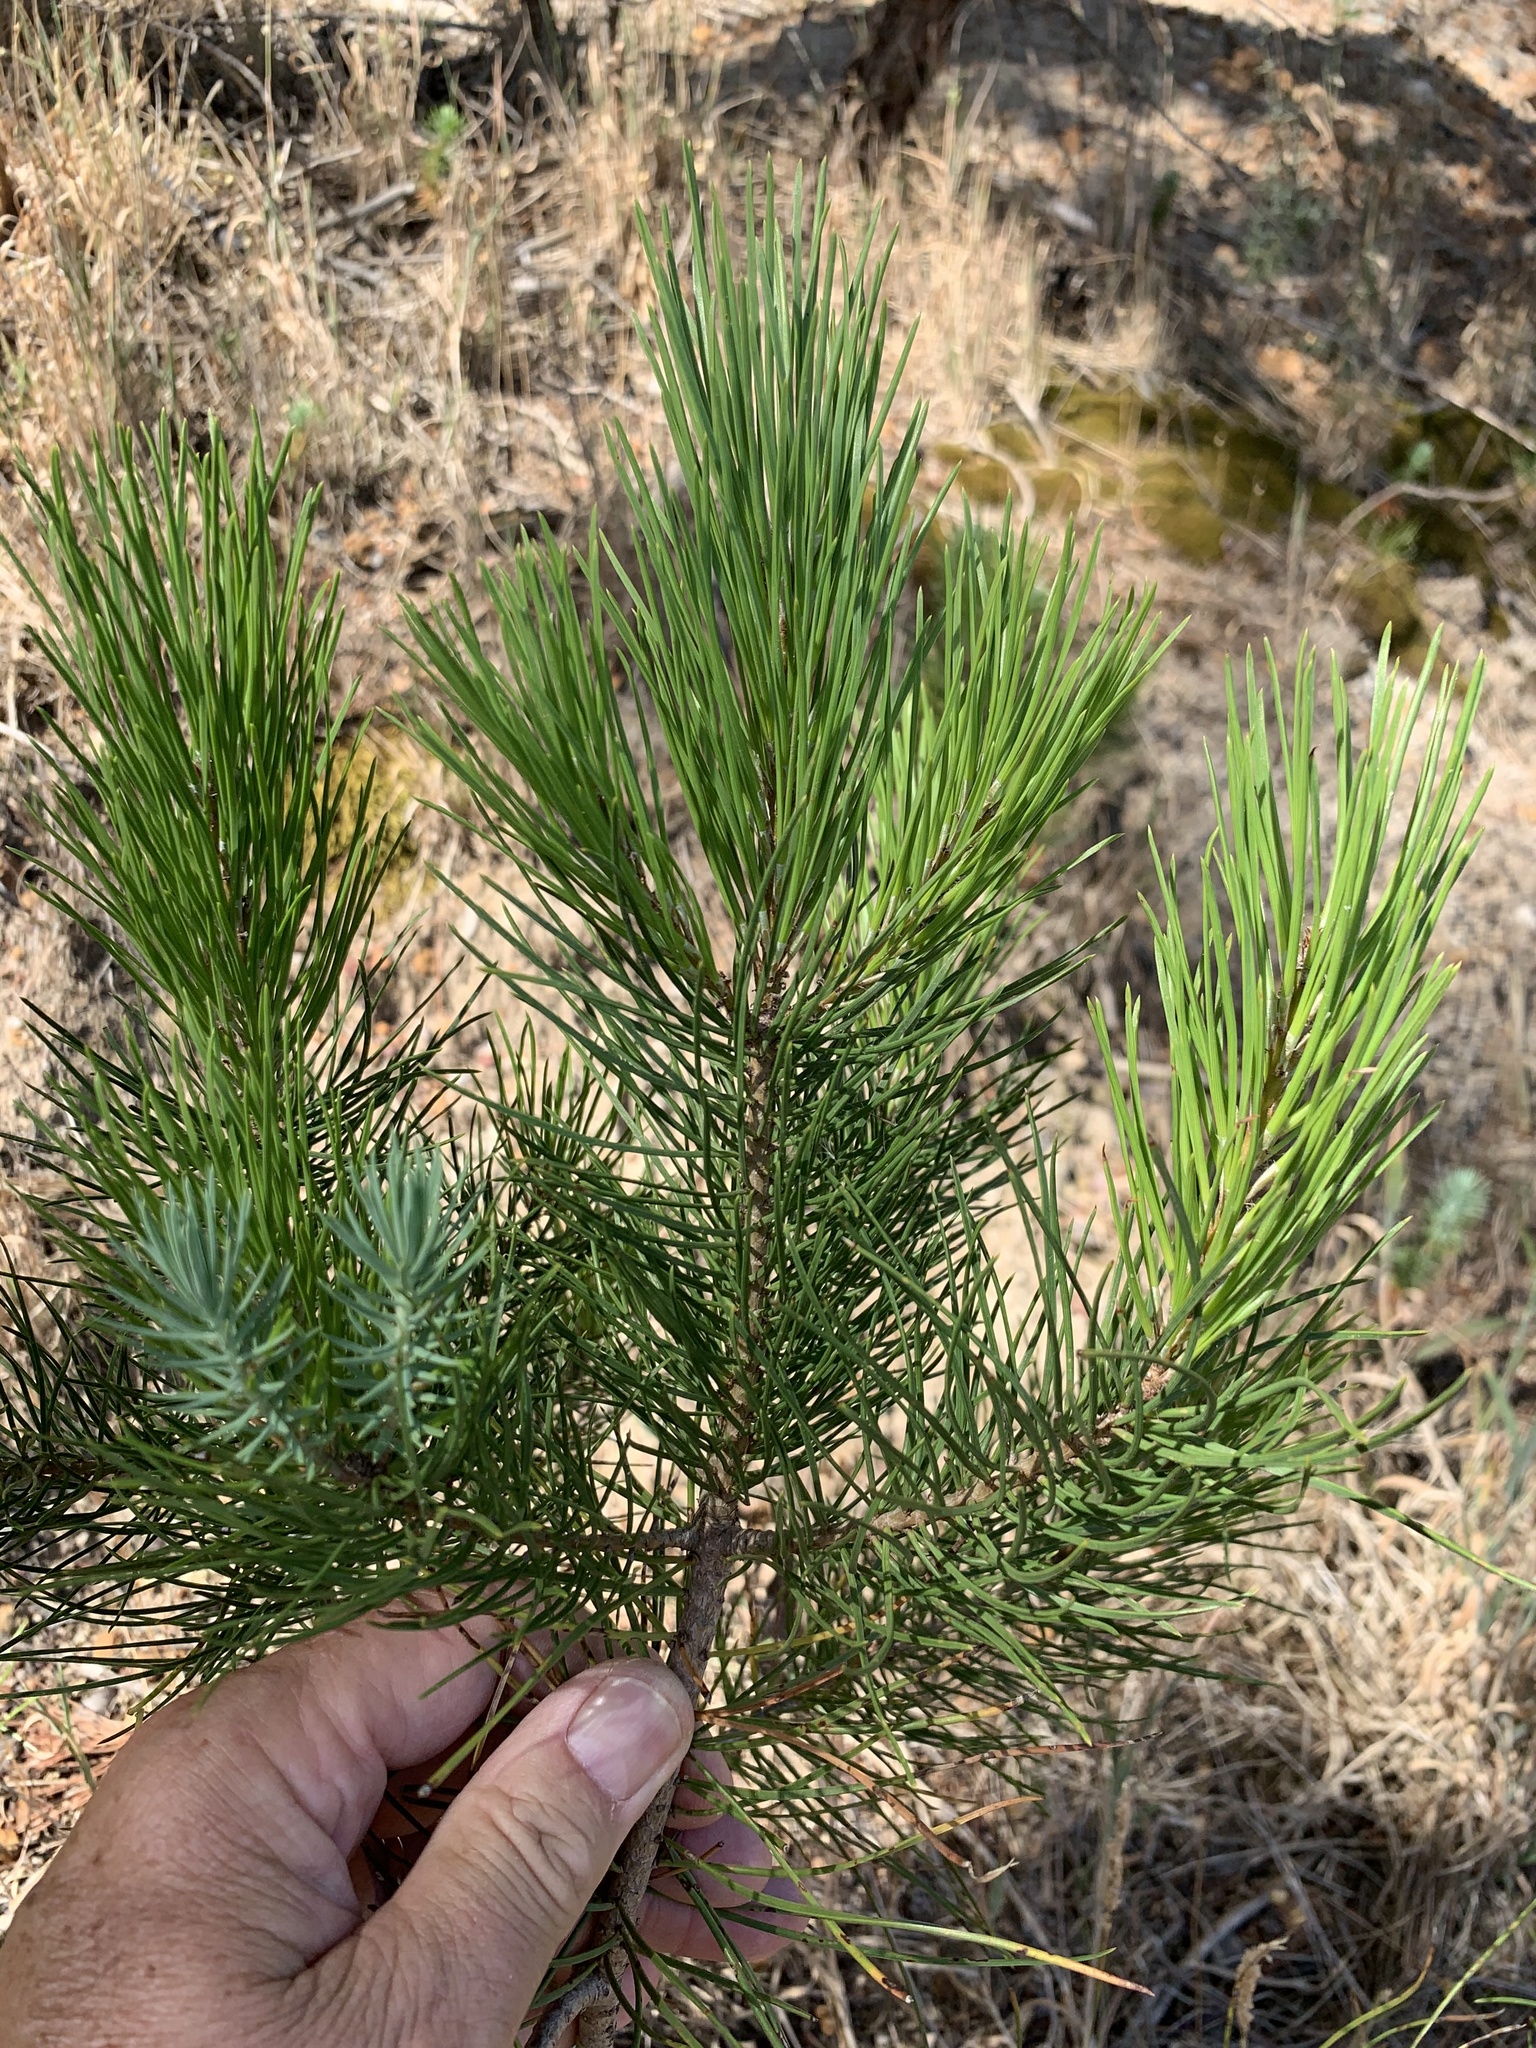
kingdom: Plantae
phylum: Tracheophyta
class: Pinopsida
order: Pinales
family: Pinaceae
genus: Pinus
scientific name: Pinus pinea
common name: Italian stone pine
